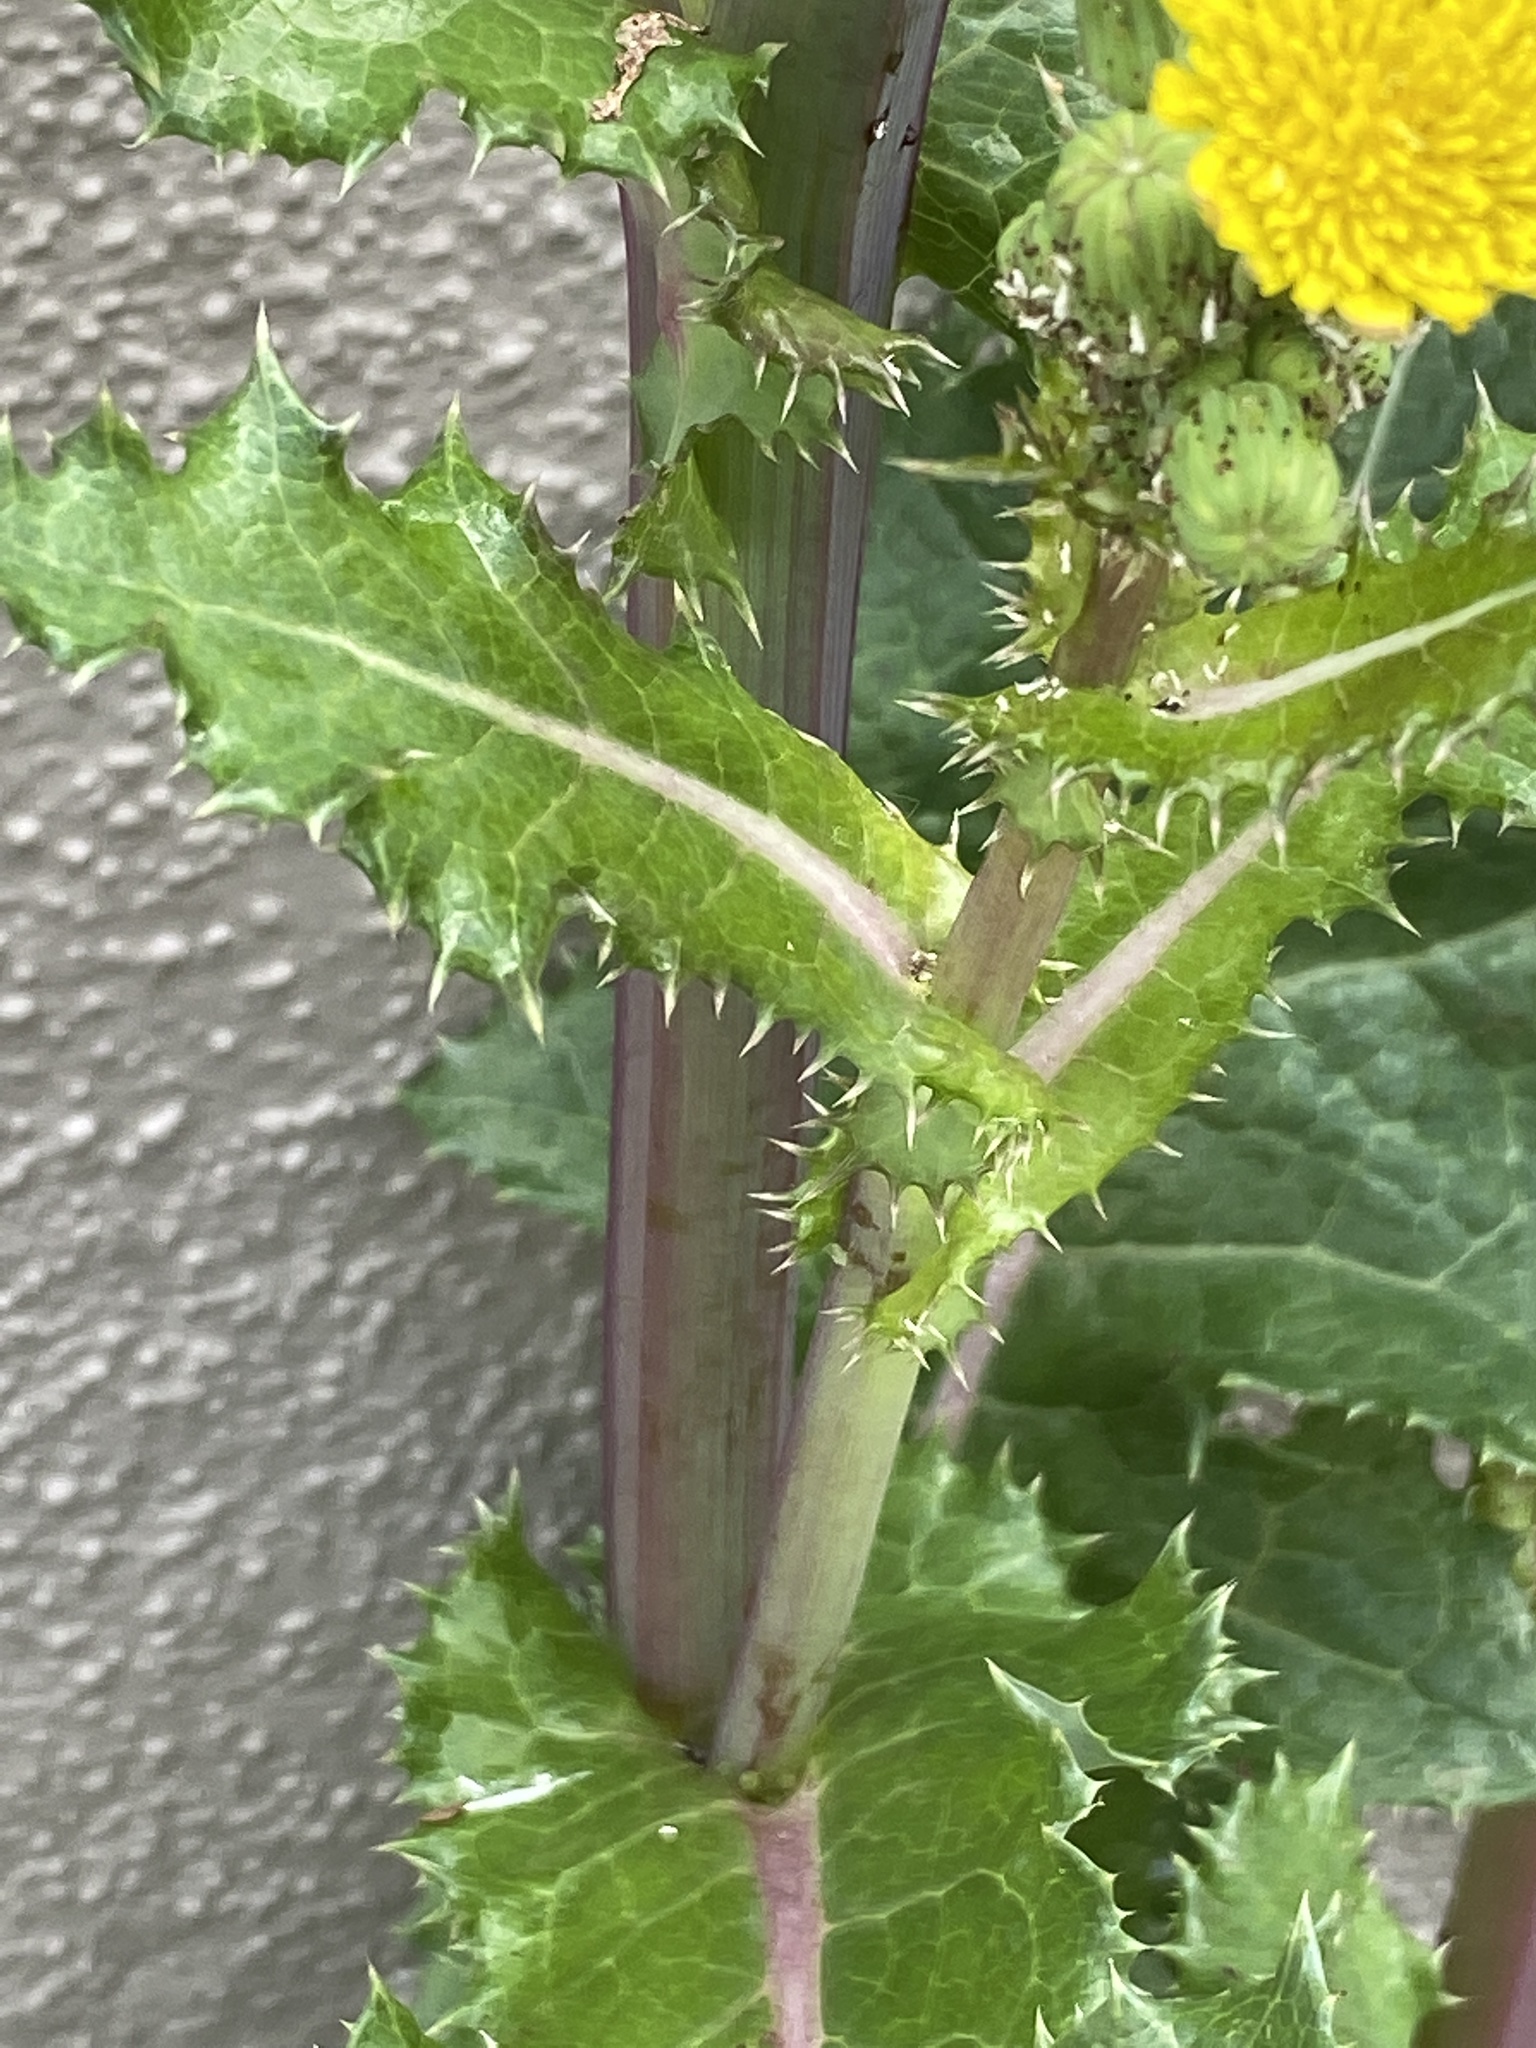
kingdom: Plantae
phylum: Tracheophyta
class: Magnoliopsida
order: Asterales
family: Asteraceae
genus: Sonchus
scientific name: Sonchus asper
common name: Prickly sow-thistle
